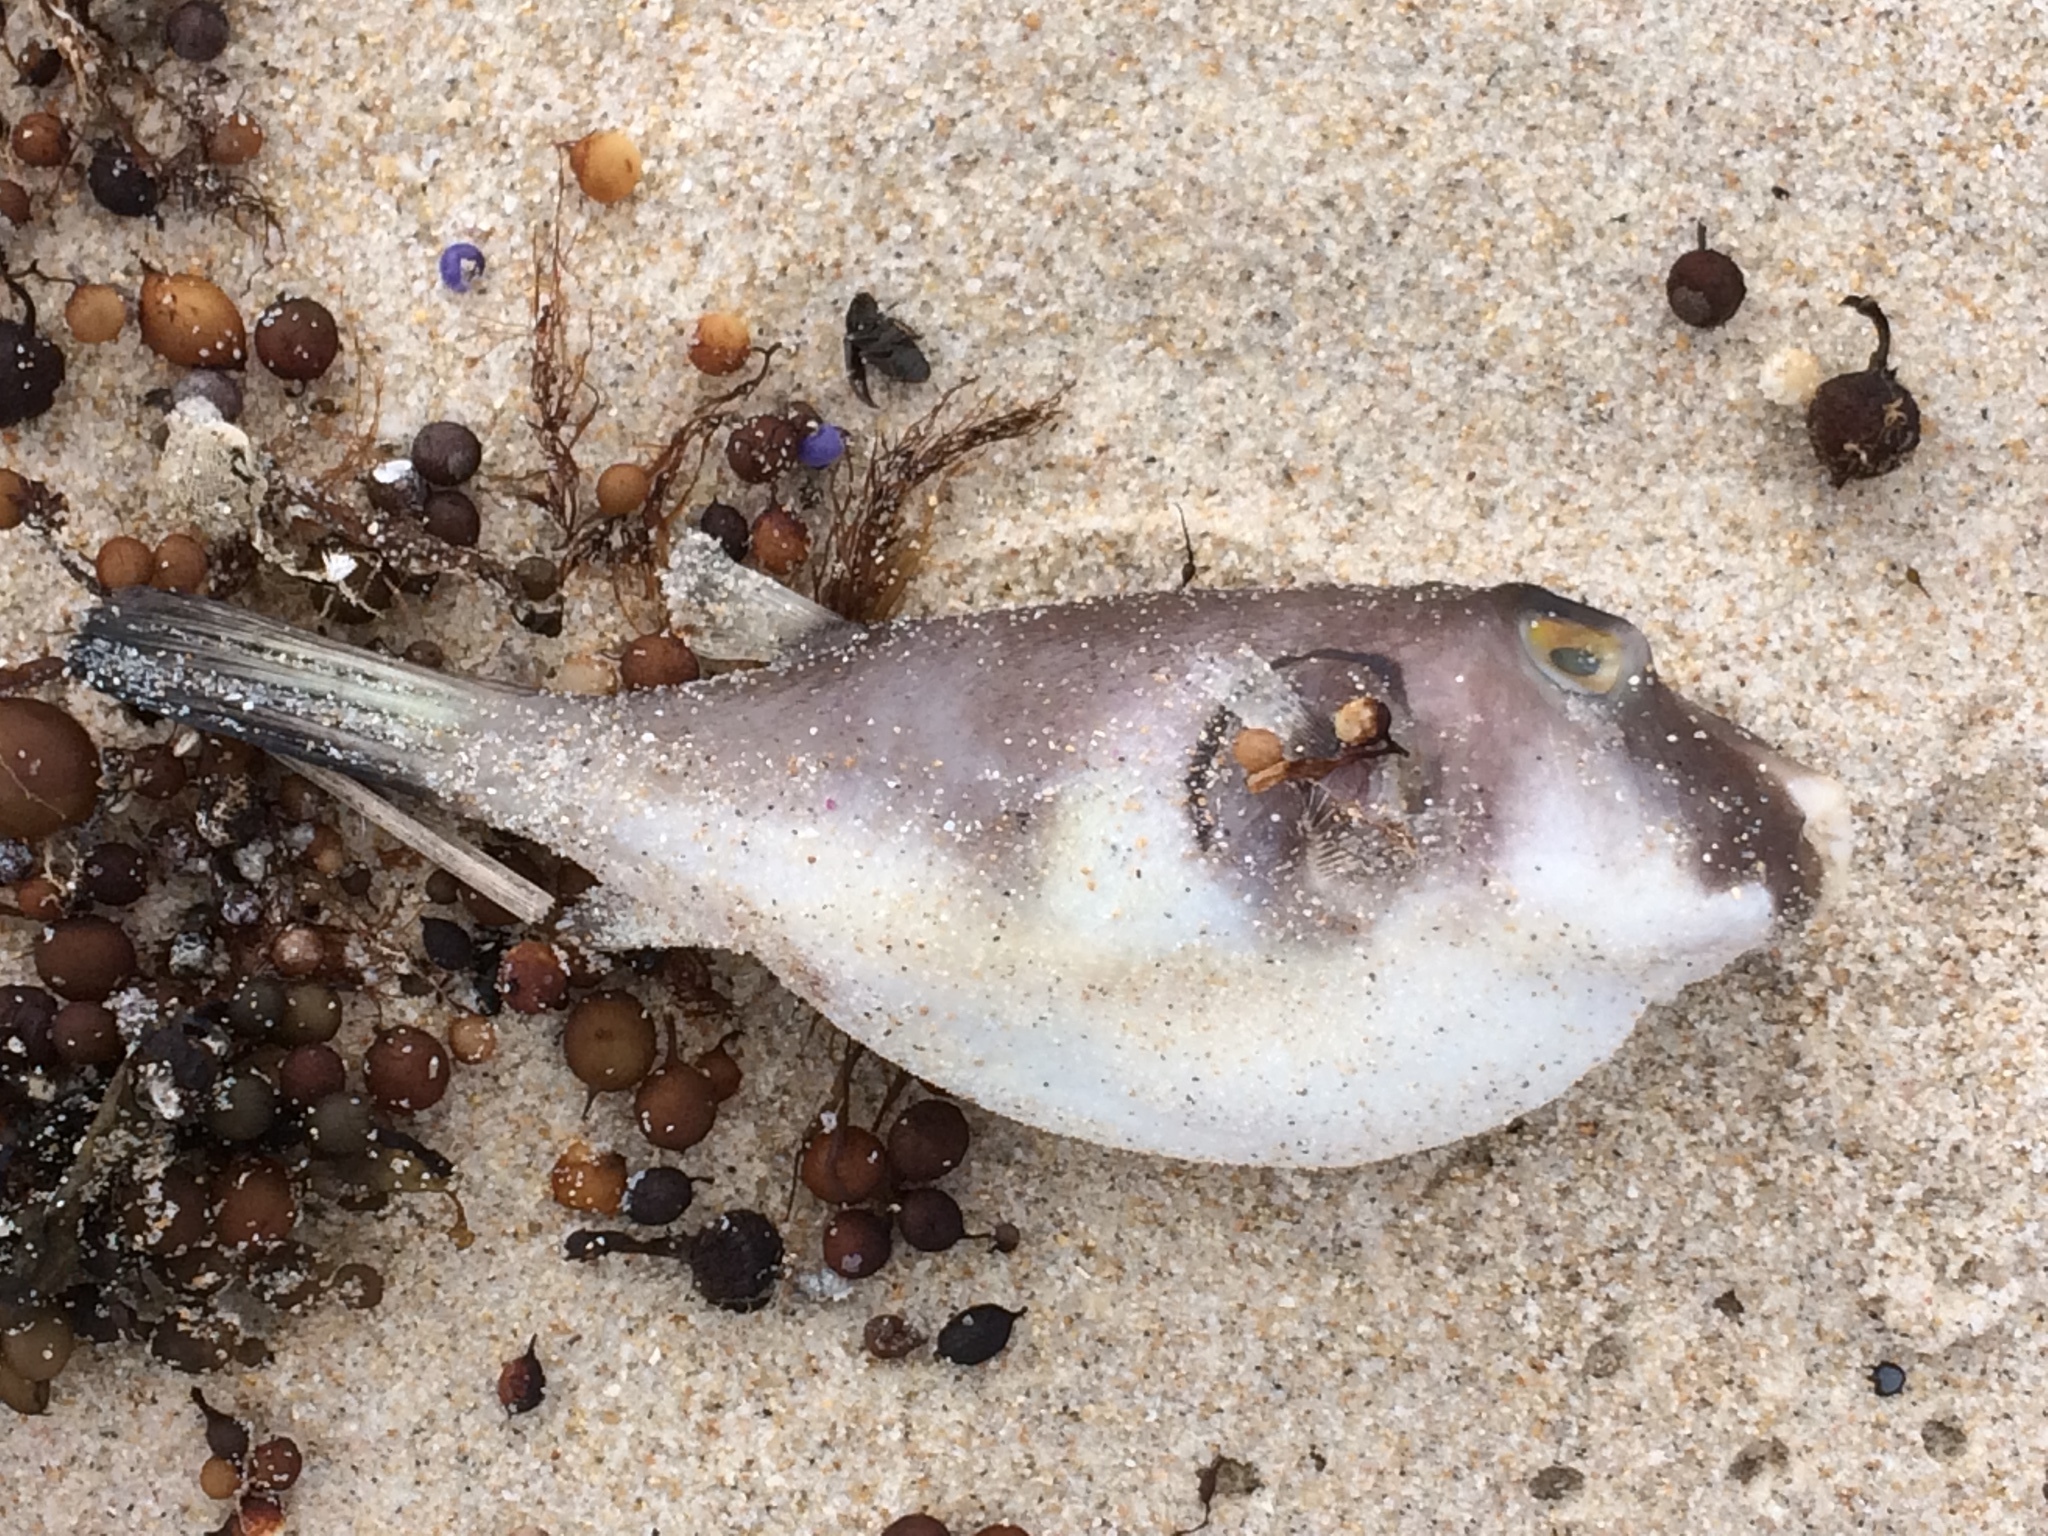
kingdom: Animalia
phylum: Chordata
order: Tetraodontiformes
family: Tetraodontidae
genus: Omegophora
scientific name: Omegophora armilla
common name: Ringed pufferfish
